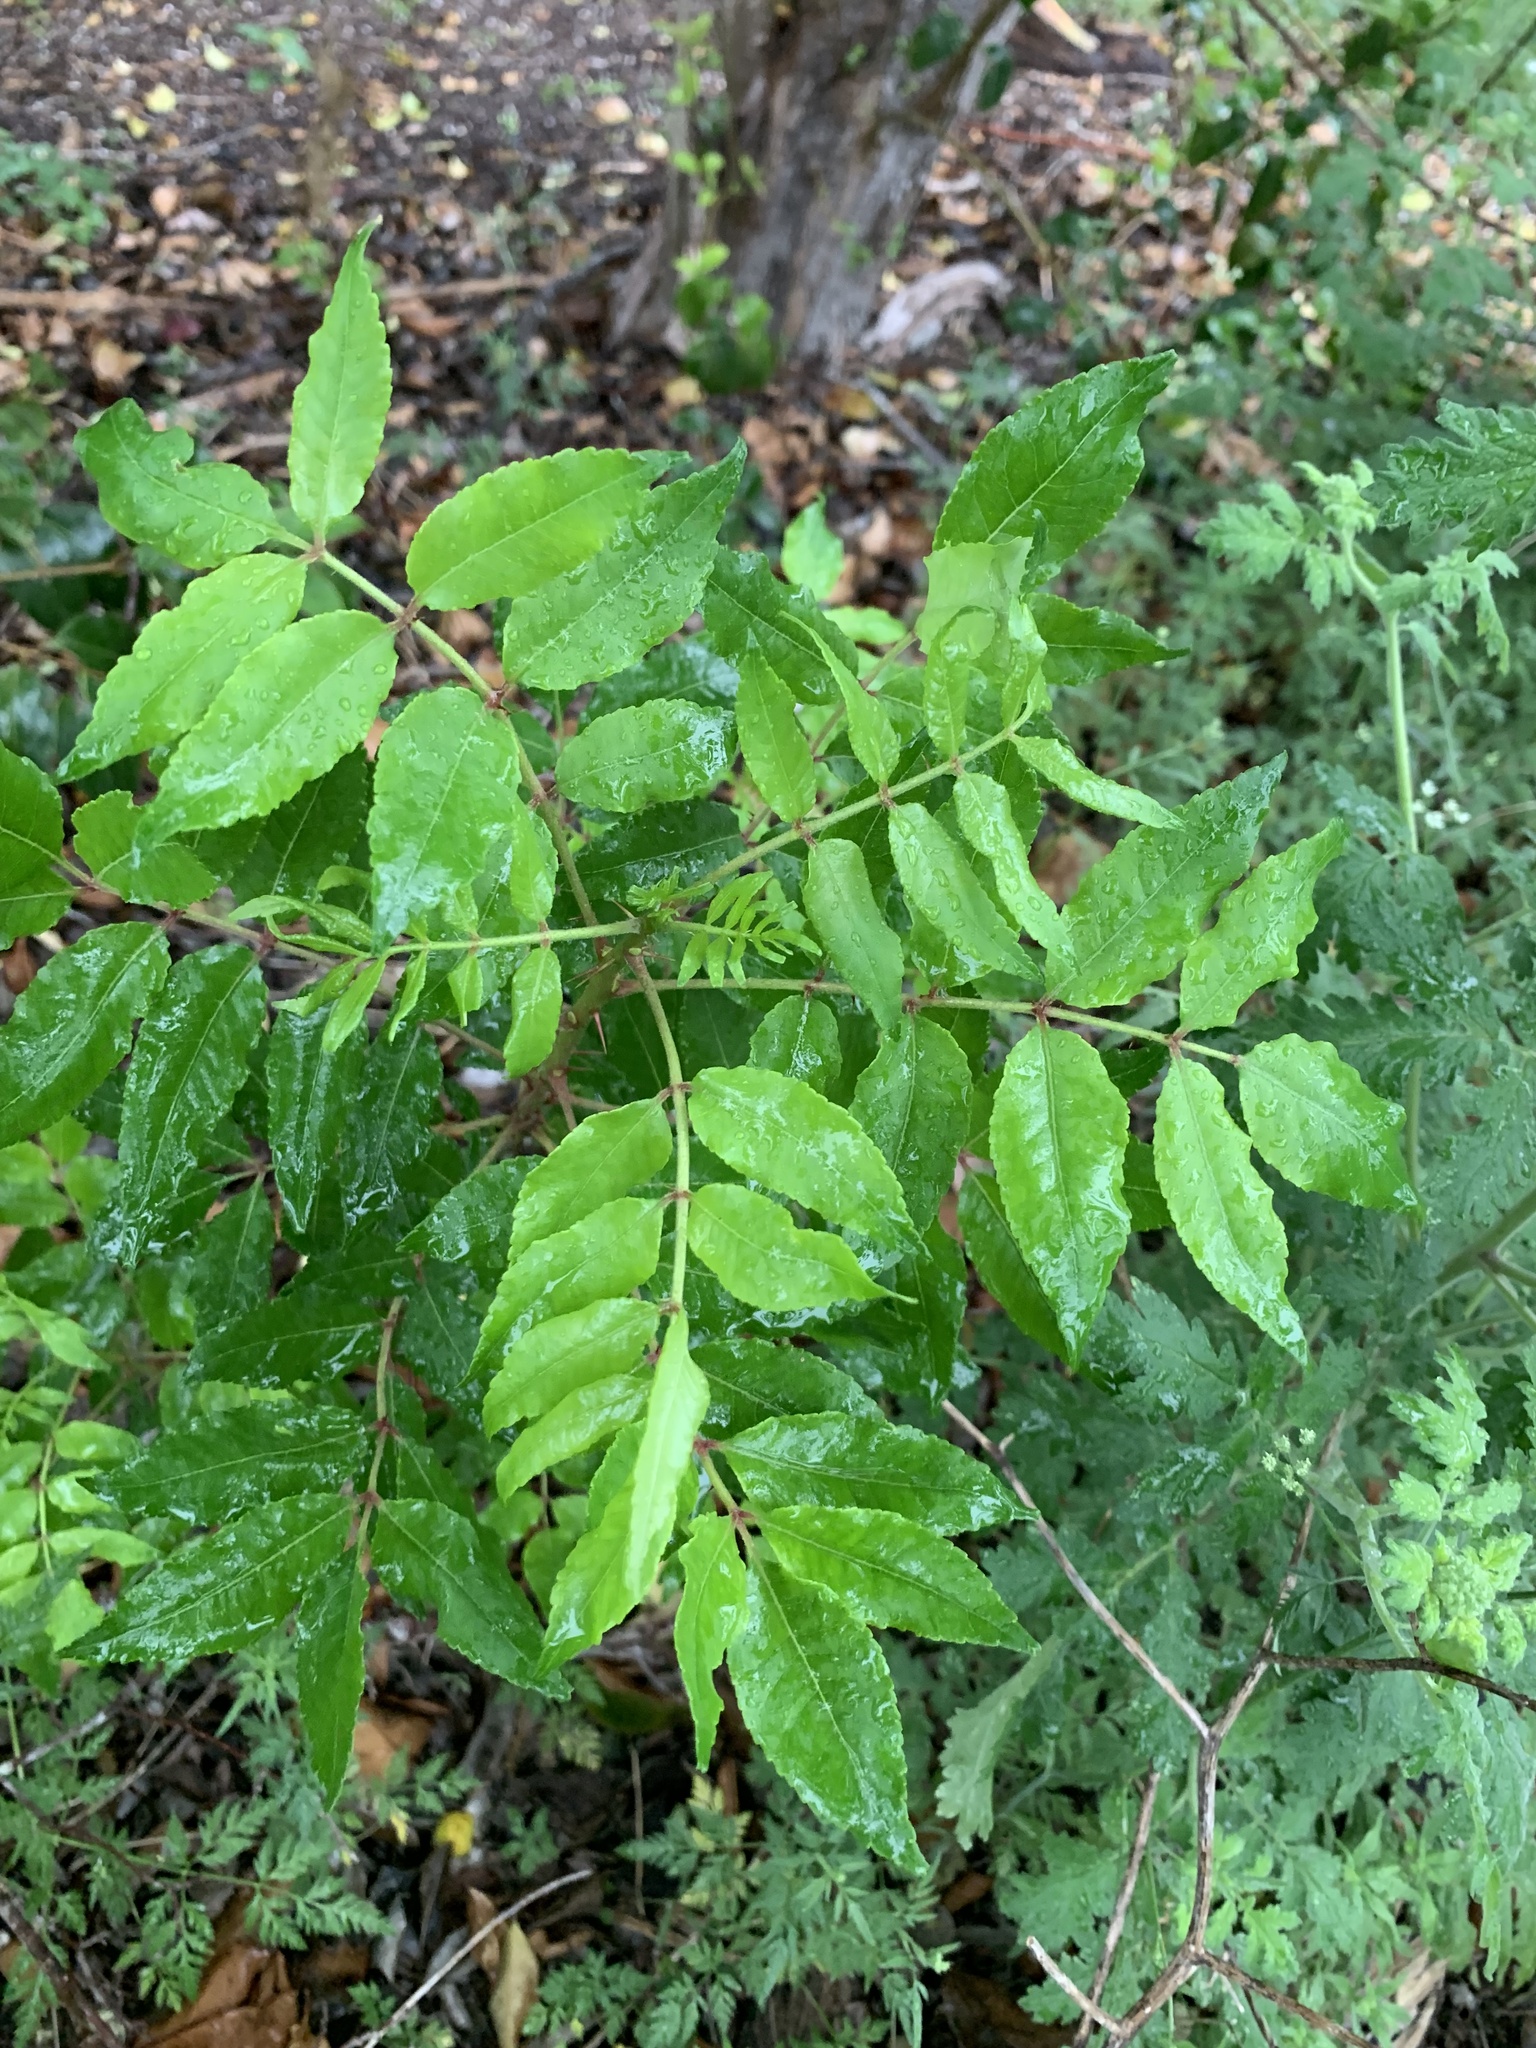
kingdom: Plantae
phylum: Tracheophyta
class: Magnoliopsida
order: Sapindales
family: Rutaceae
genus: Zanthoxylum
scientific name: Zanthoxylum clava-herculis
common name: Hercules'-club
